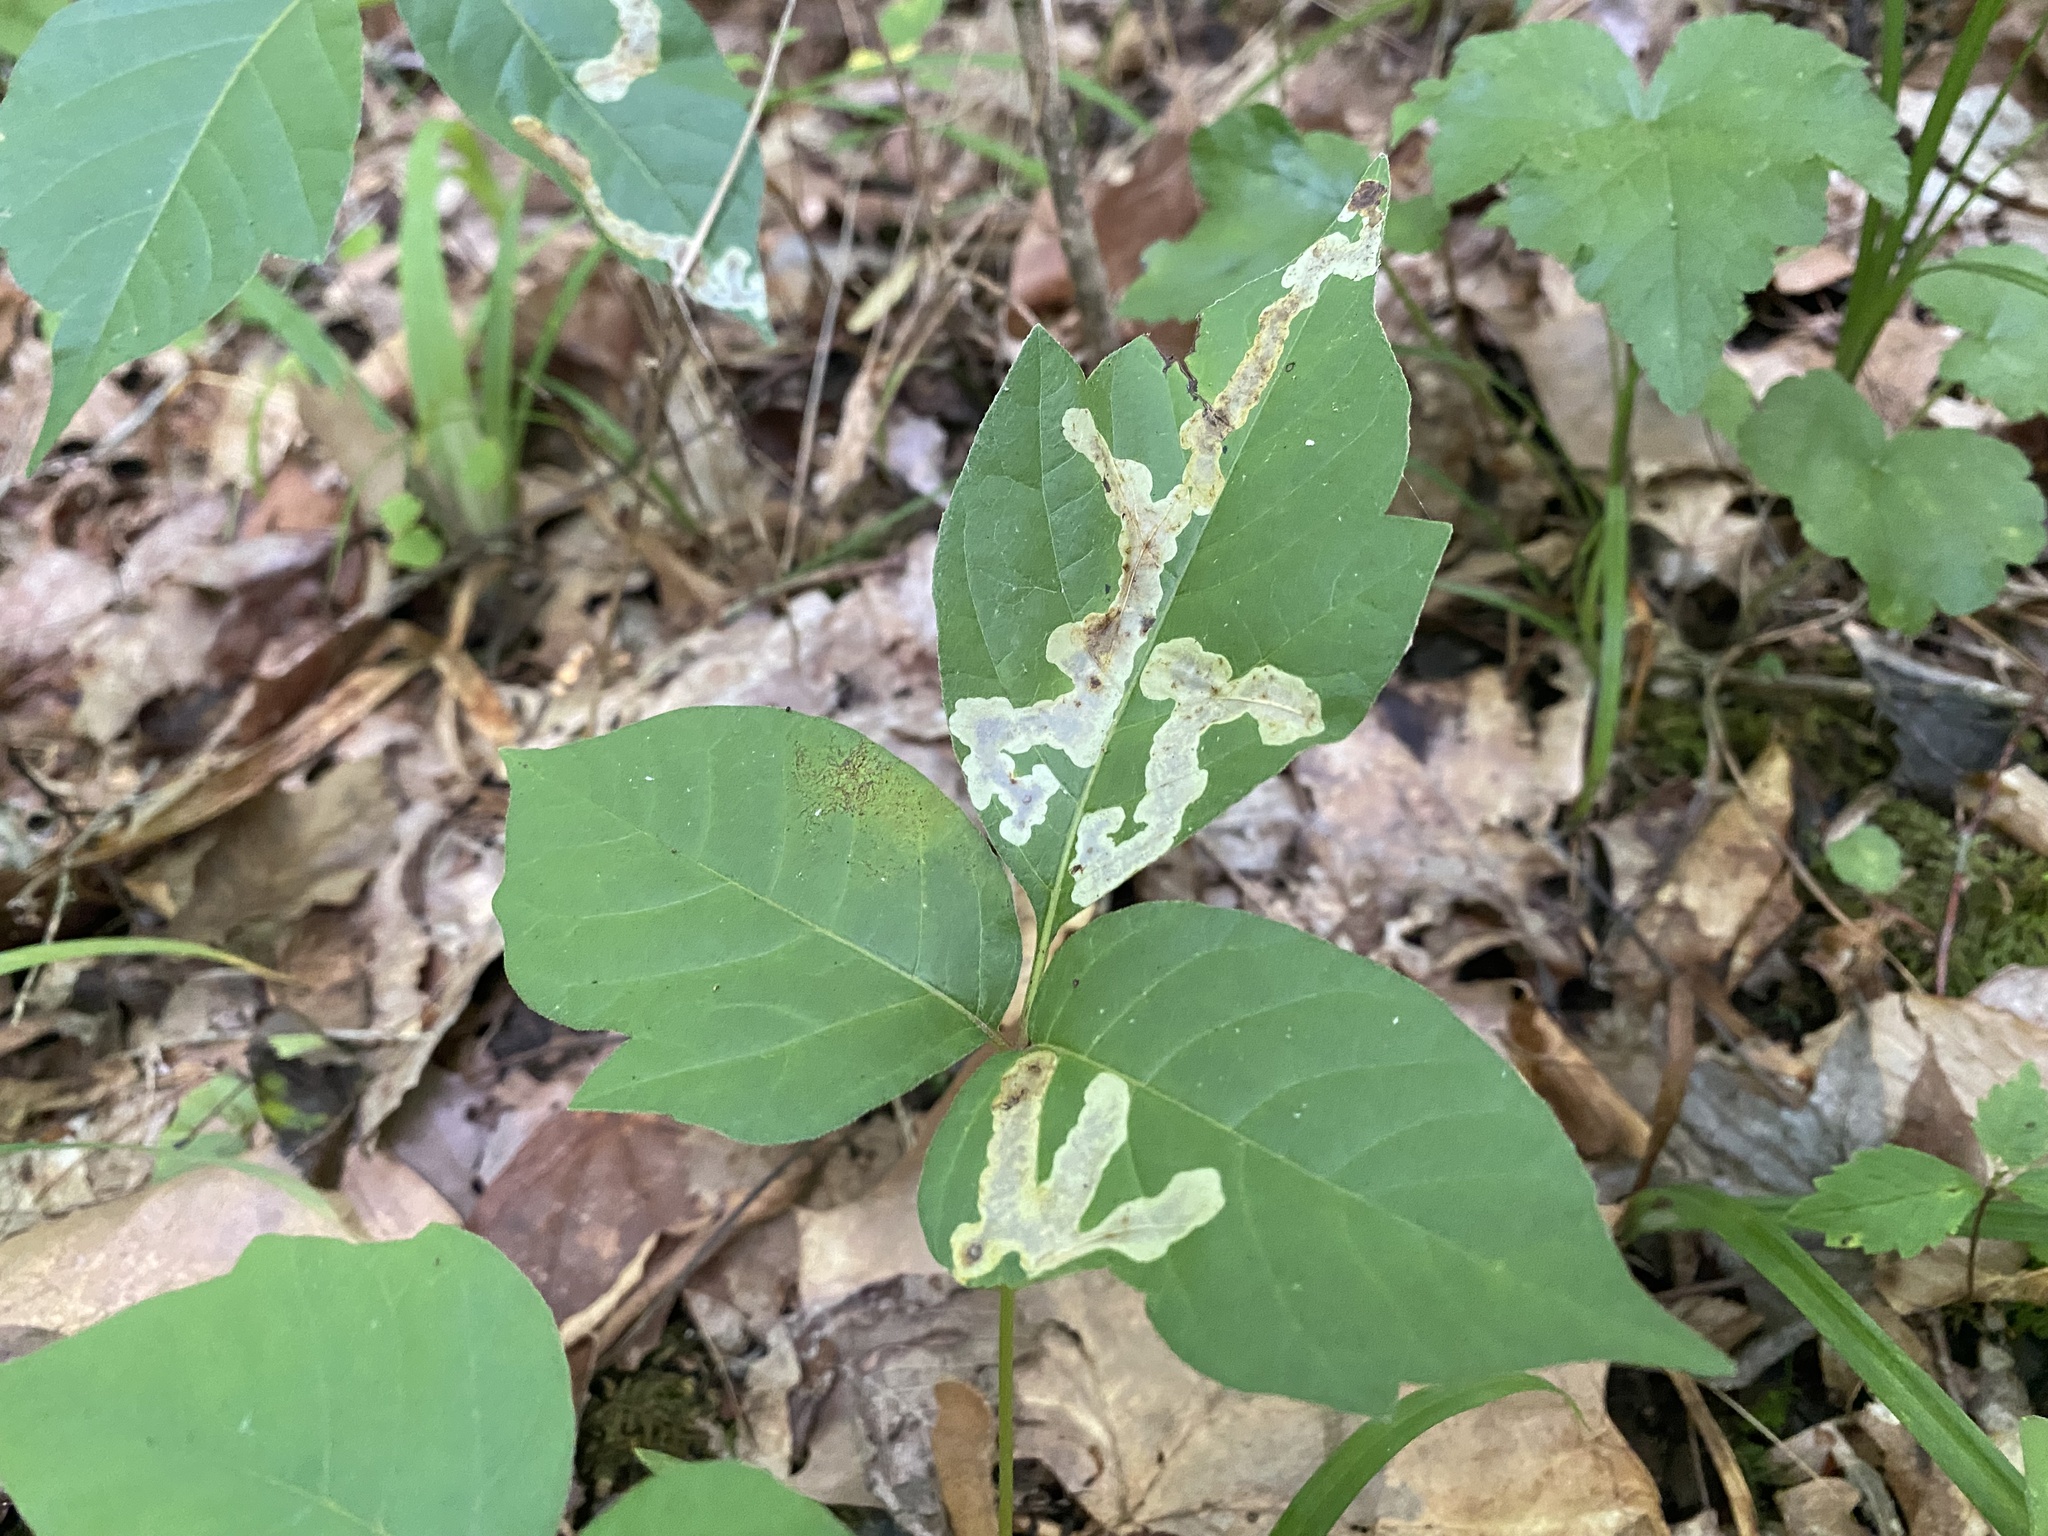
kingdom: Animalia
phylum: Arthropoda
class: Insecta
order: Lepidoptera
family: Gracillariidae
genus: Cameraria
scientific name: Cameraria guttifinitella
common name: Poison ivy leaf-miner moth
